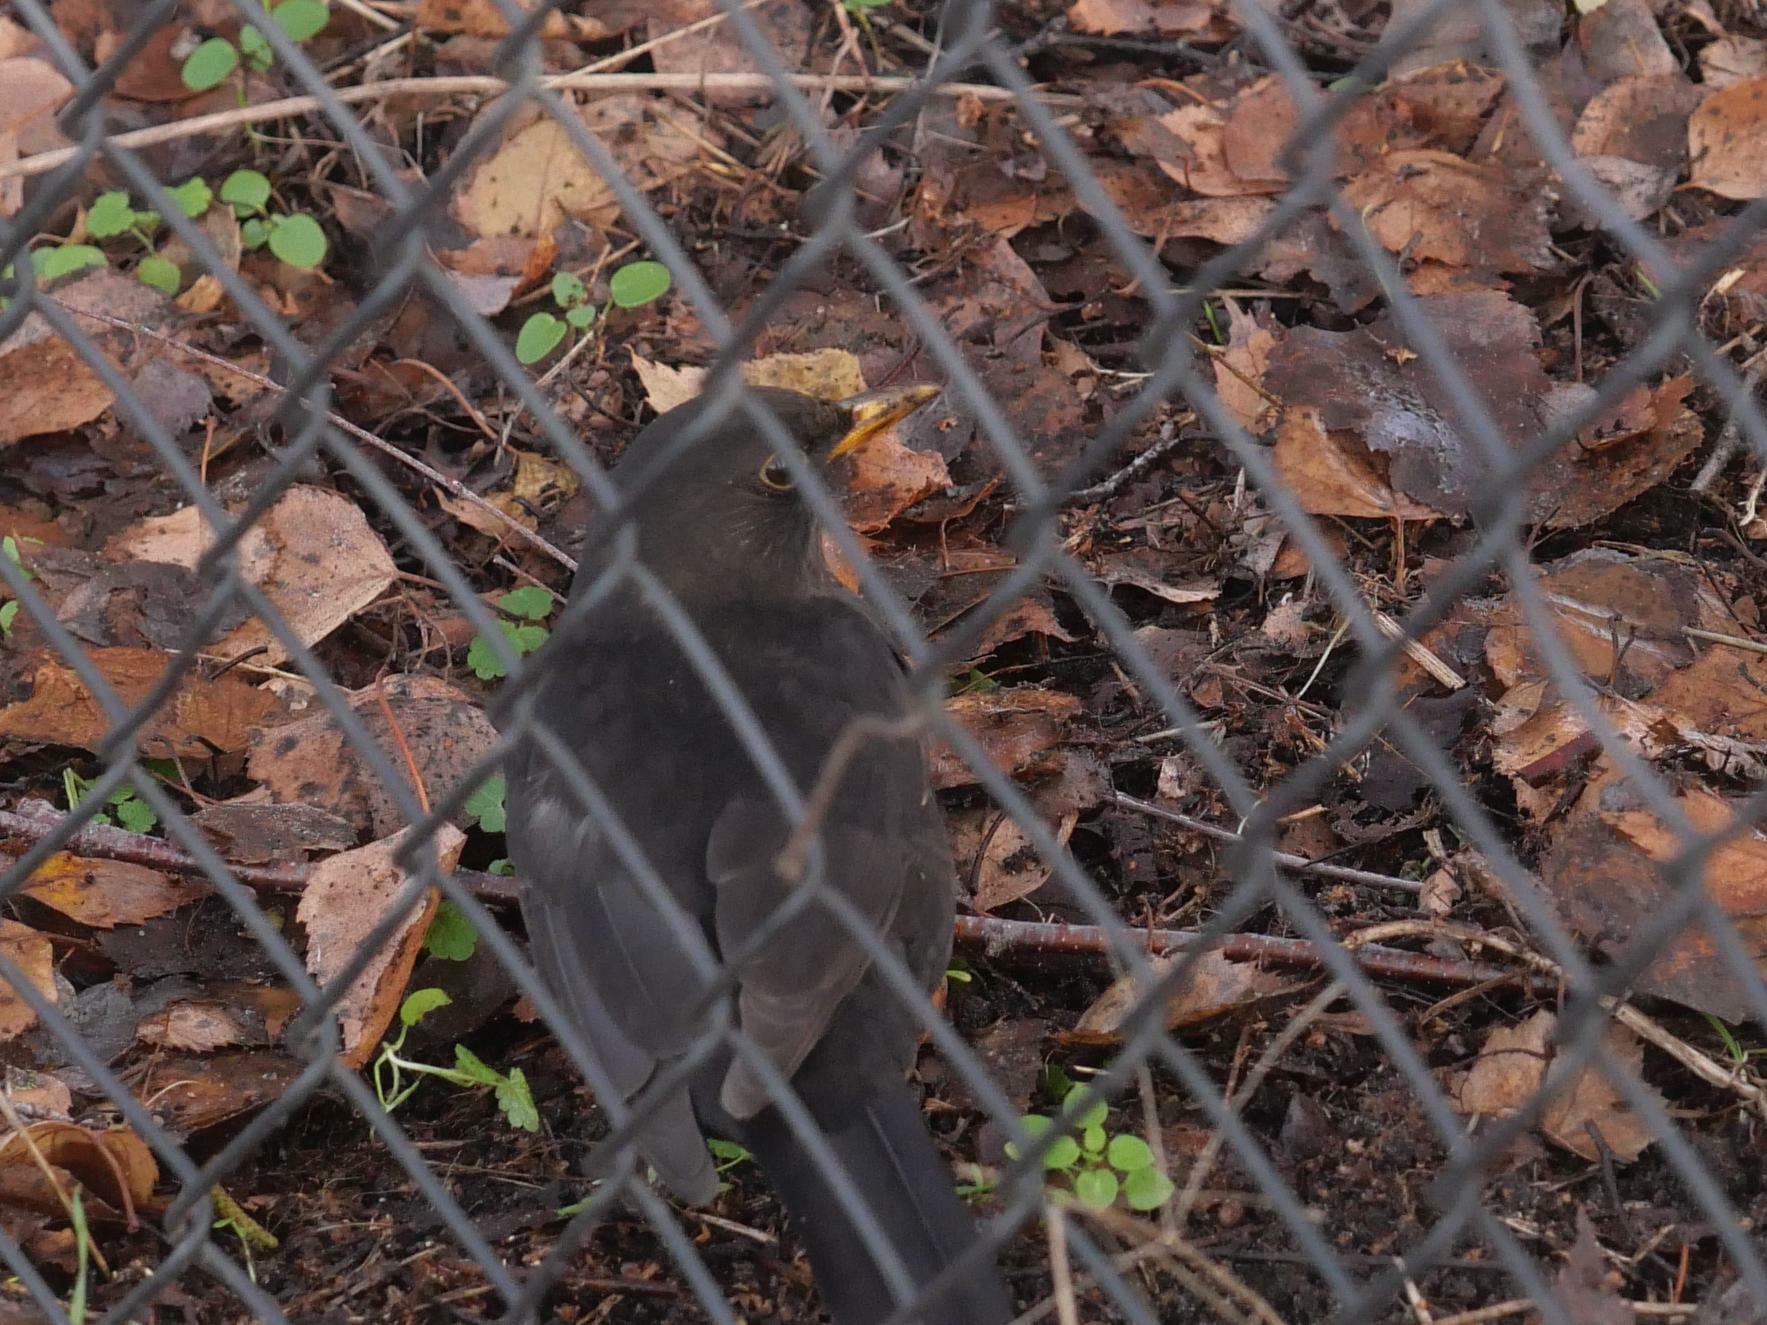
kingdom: Animalia
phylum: Chordata
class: Aves
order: Passeriformes
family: Turdidae
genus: Turdus
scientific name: Turdus merula
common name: Common blackbird
